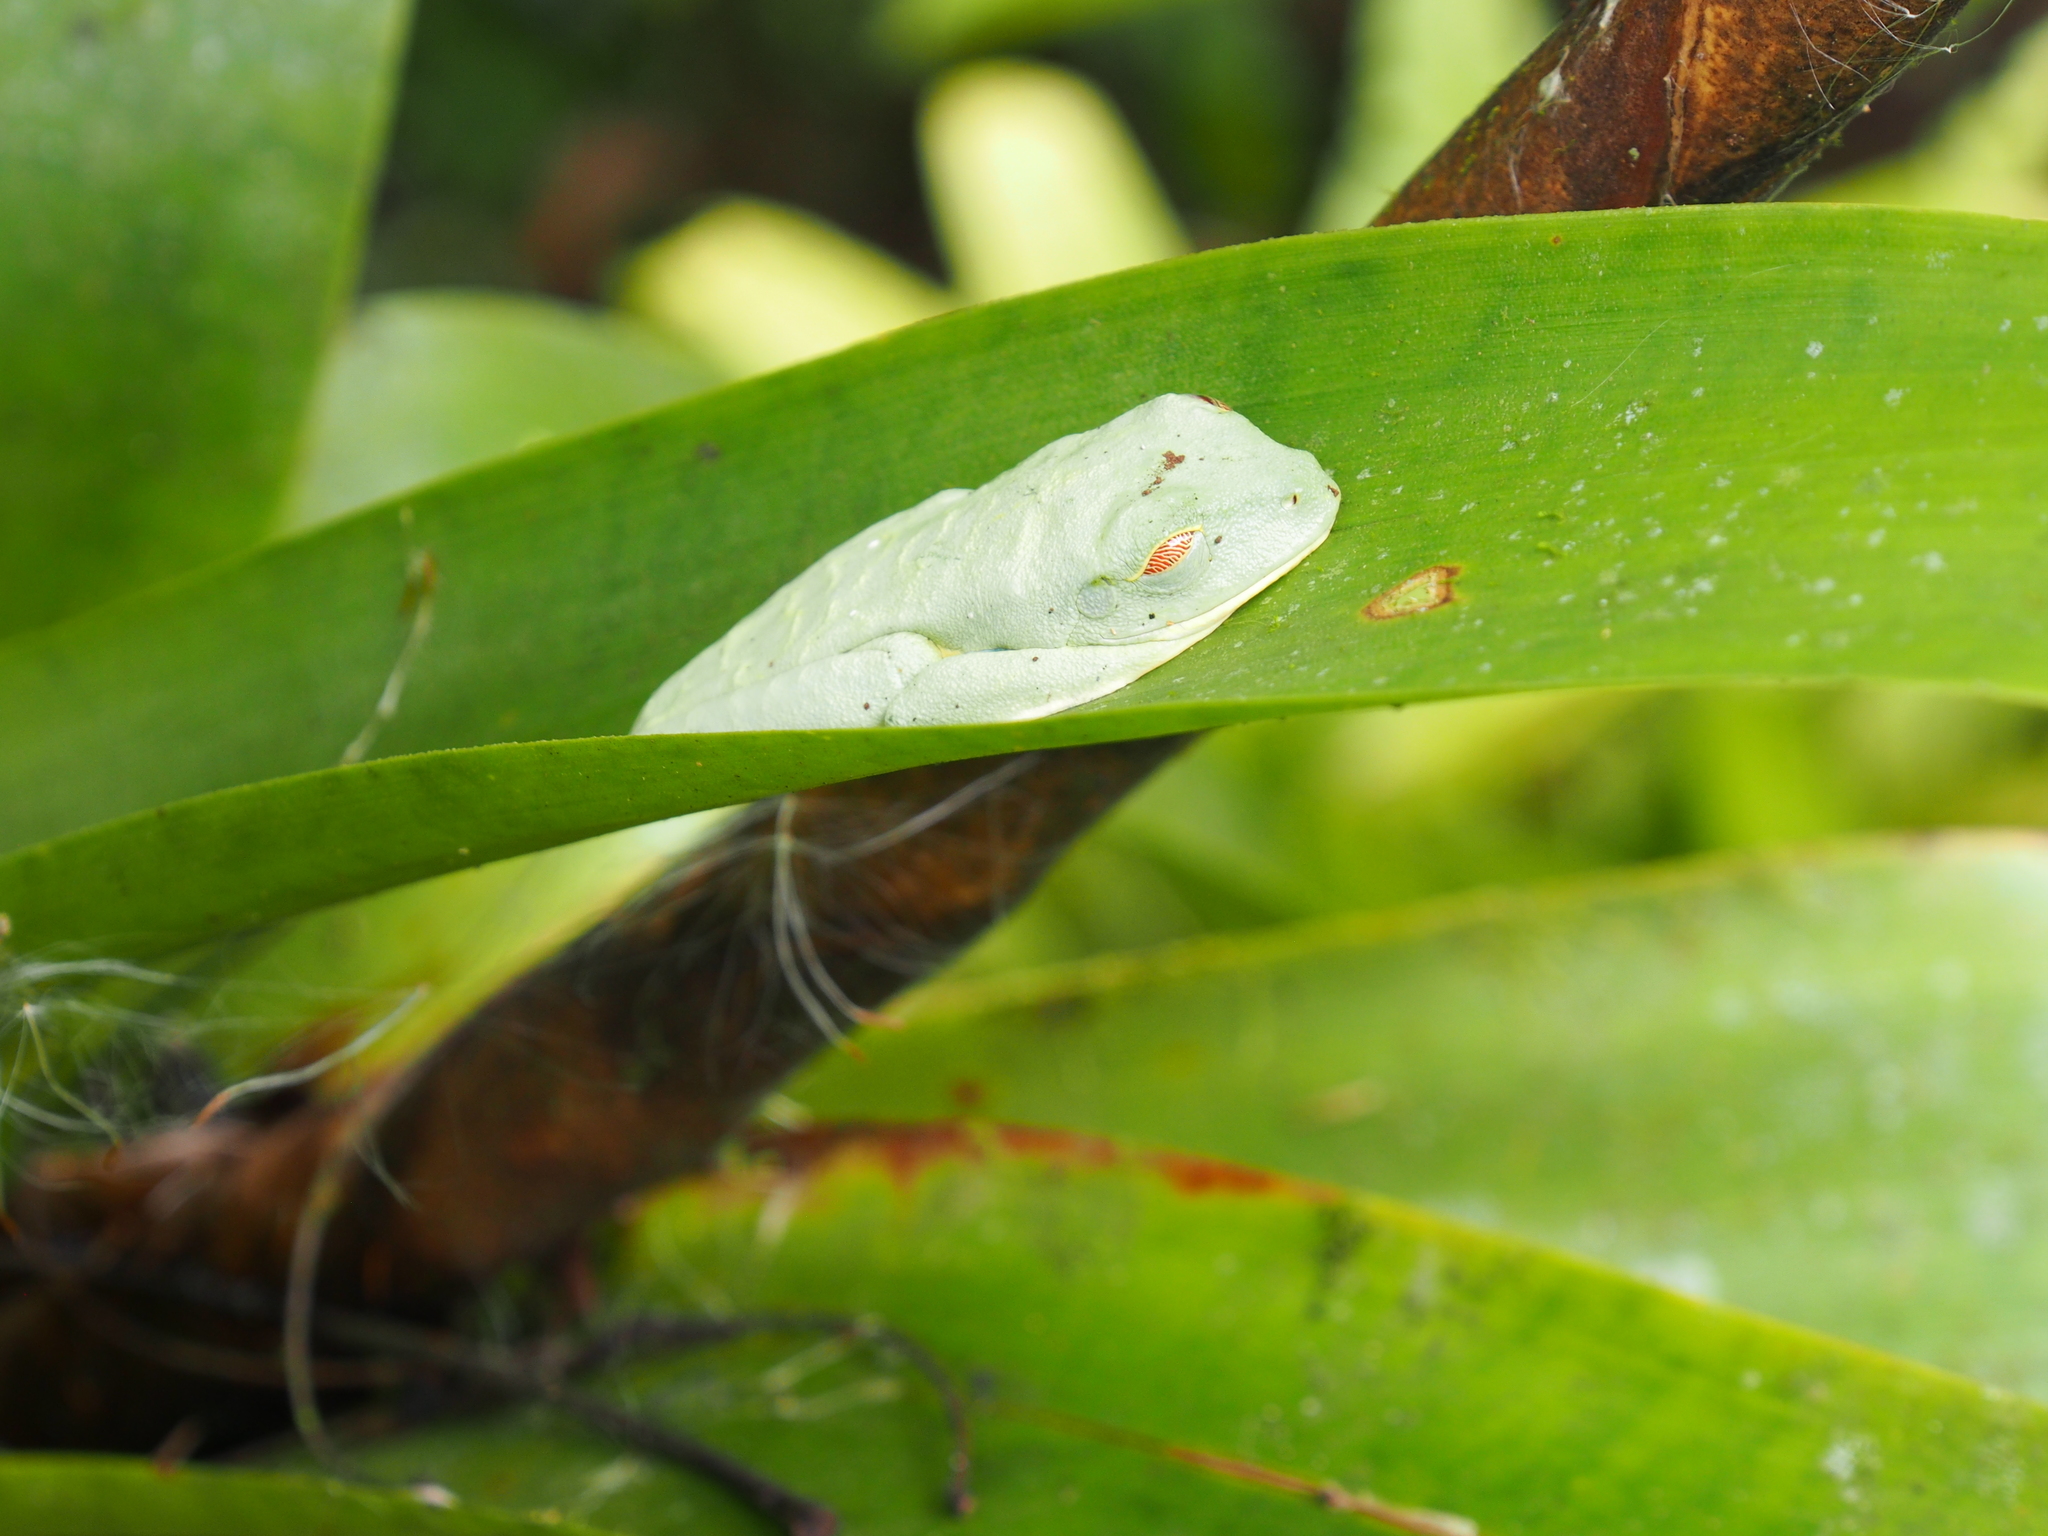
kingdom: Animalia
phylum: Chordata
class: Amphibia
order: Anura
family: Phyllomedusidae
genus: Agalychnis
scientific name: Agalychnis callidryas
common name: Red-eyed treefrog
